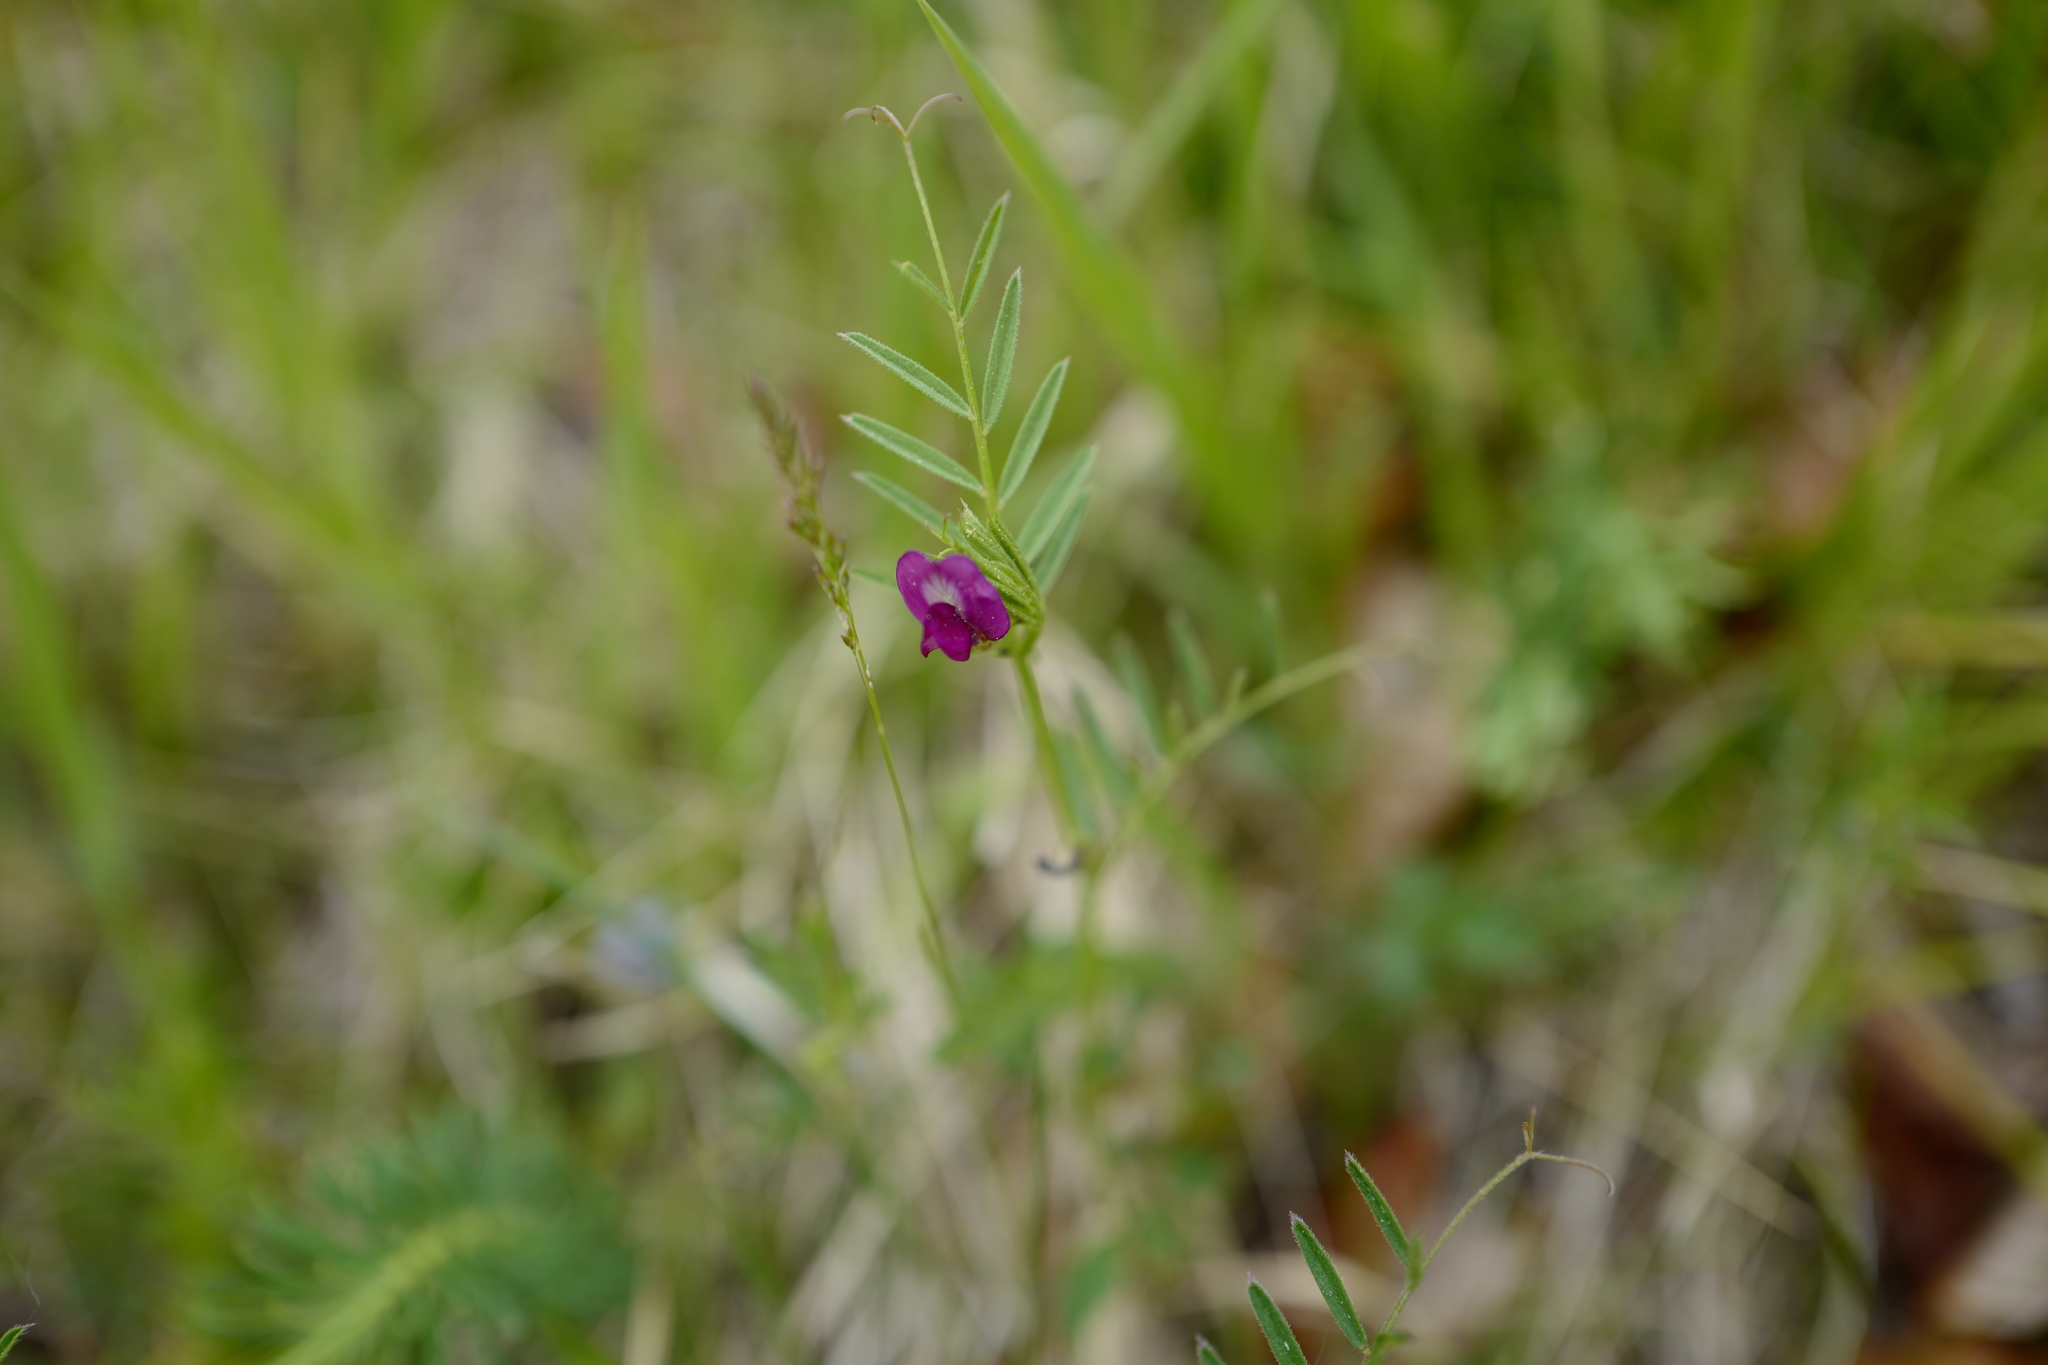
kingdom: Plantae
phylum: Tracheophyta
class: Magnoliopsida
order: Fabales
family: Fabaceae
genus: Vicia
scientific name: Vicia sativa
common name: Garden vetch
